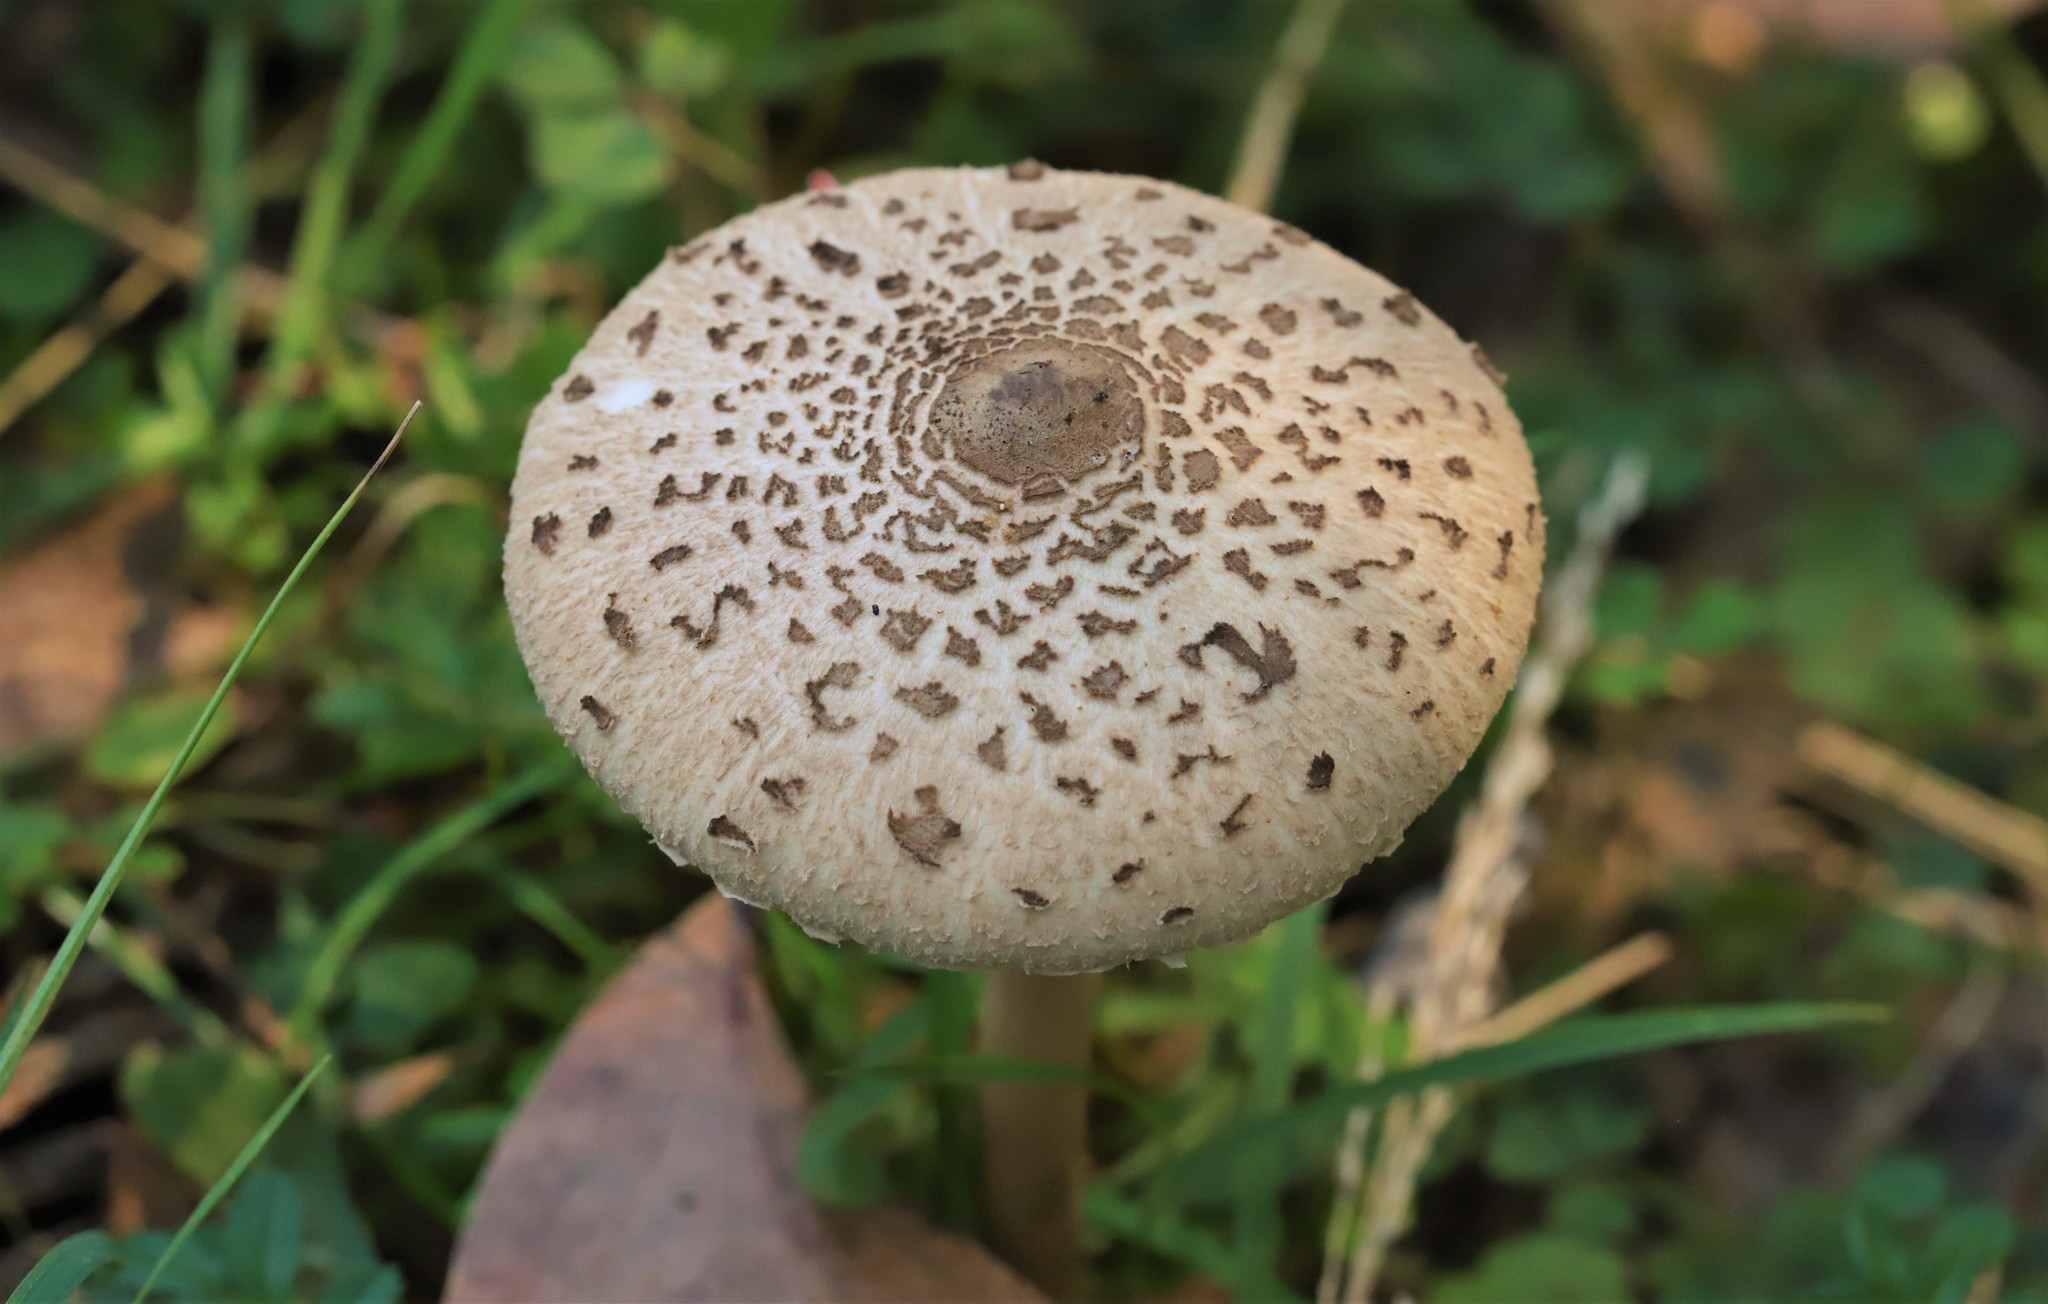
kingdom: Fungi
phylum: Basidiomycota
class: Agaricomycetes
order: Agaricales
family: Agaricaceae
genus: Macrolepiota
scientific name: Macrolepiota clelandii
